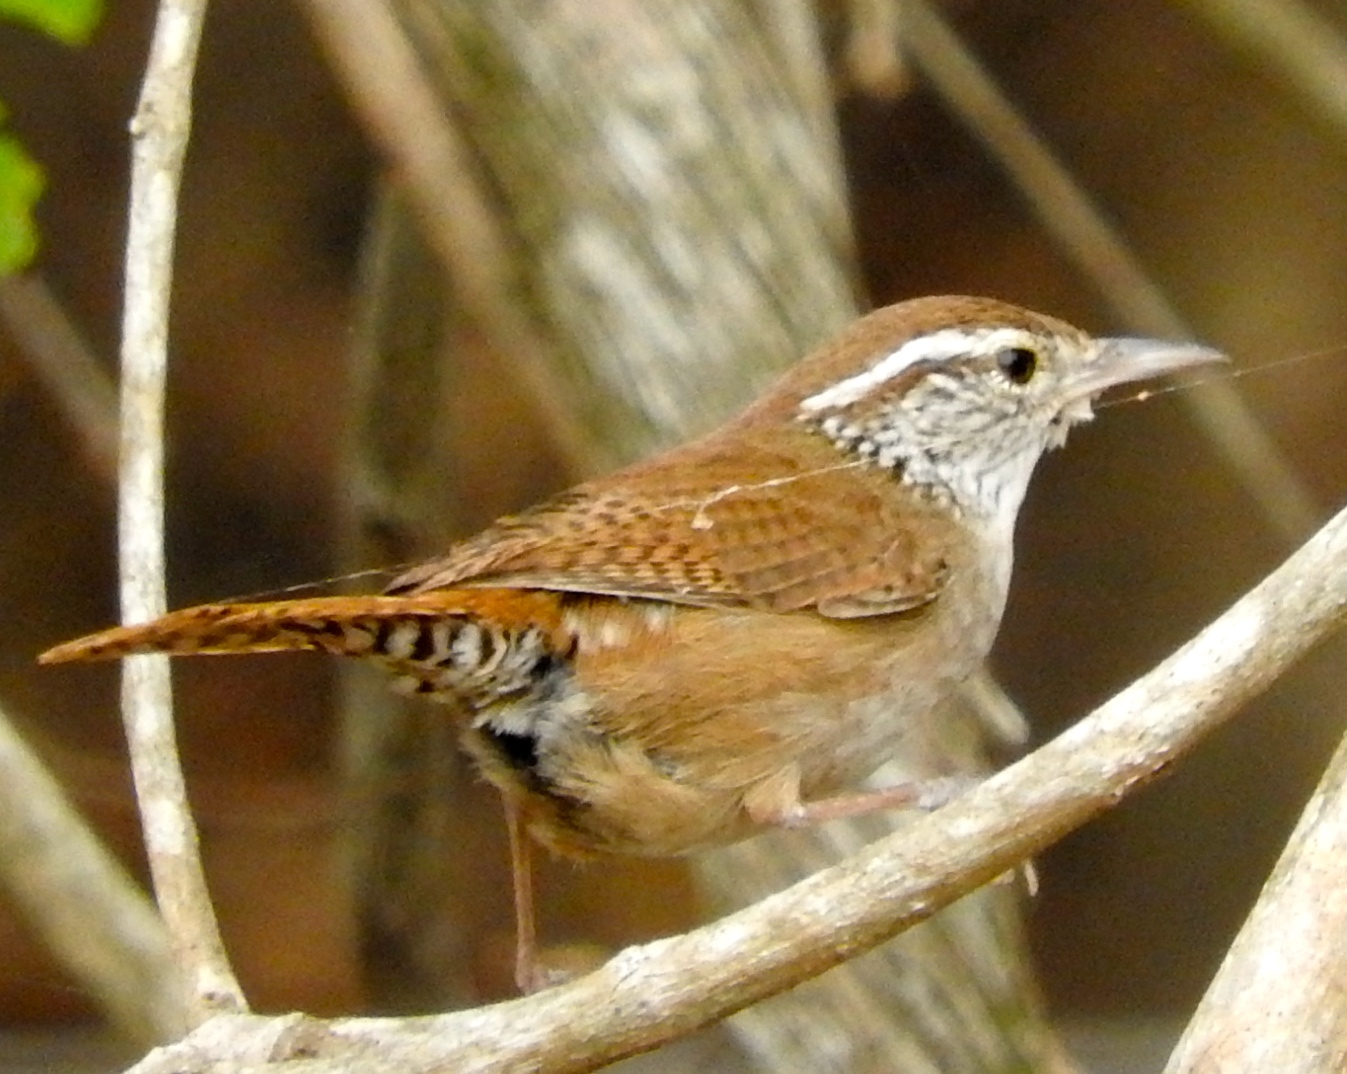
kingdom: Animalia
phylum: Chordata
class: Aves
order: Passeriformes
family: Troglodytidae
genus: Thryophilus
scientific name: Thryophilus sinaloa
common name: Sinaloa wren
